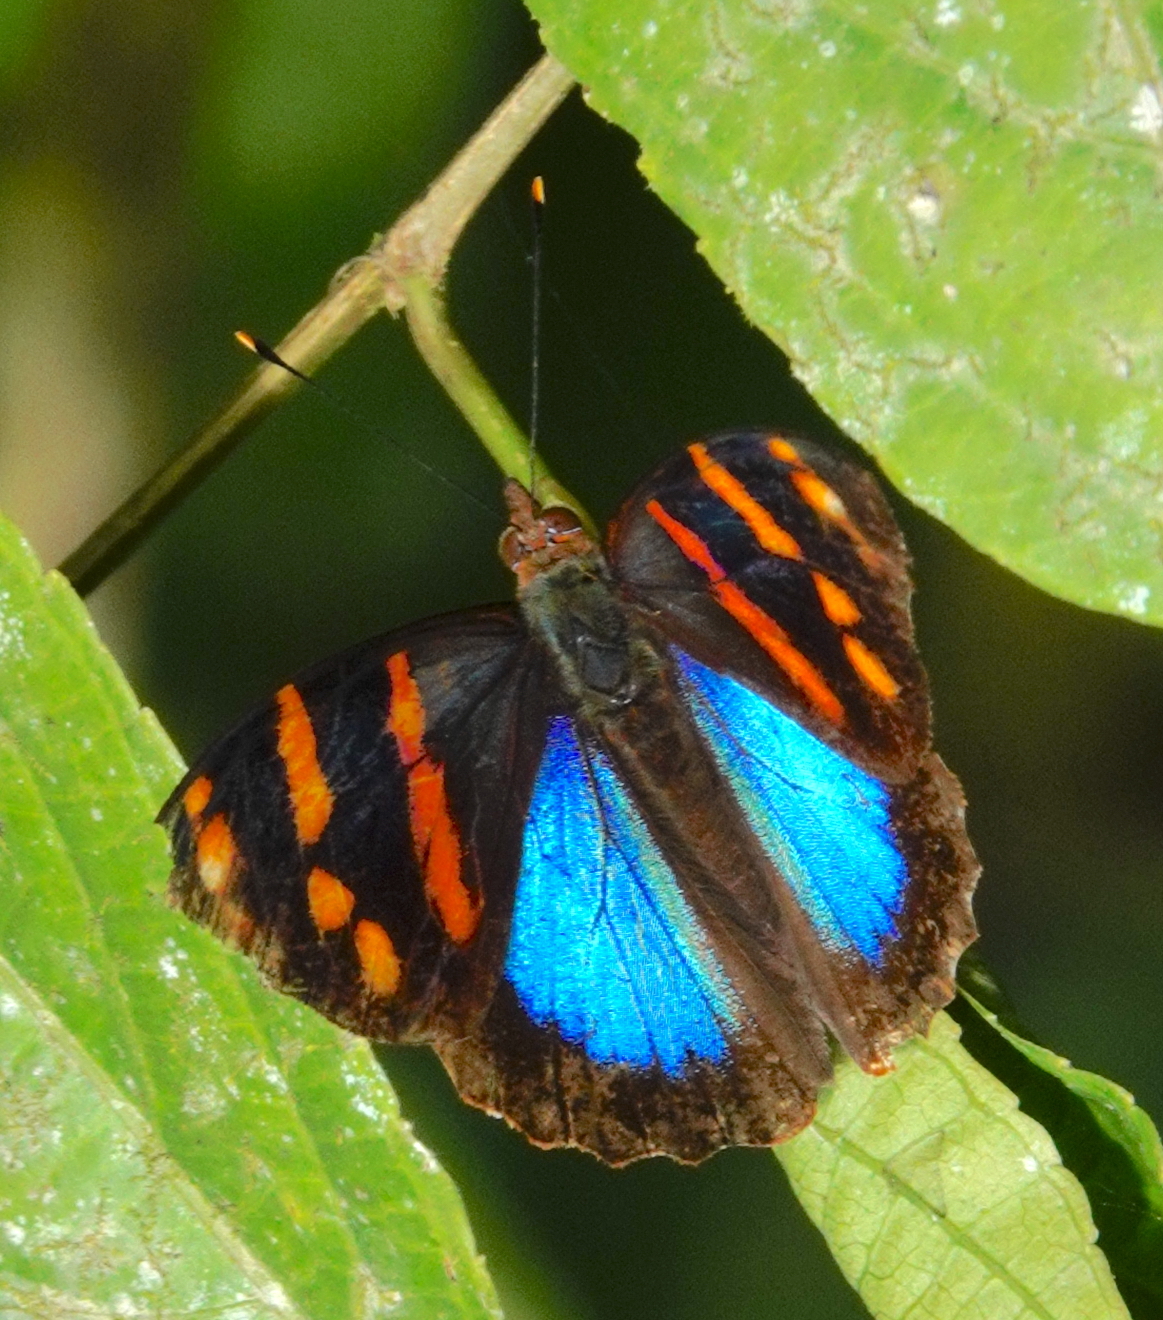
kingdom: Animalia
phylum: Arthropoda
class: Insecta
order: Lepidoptera
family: Nymphalidae
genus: Epiphile
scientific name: Epiphile orea
